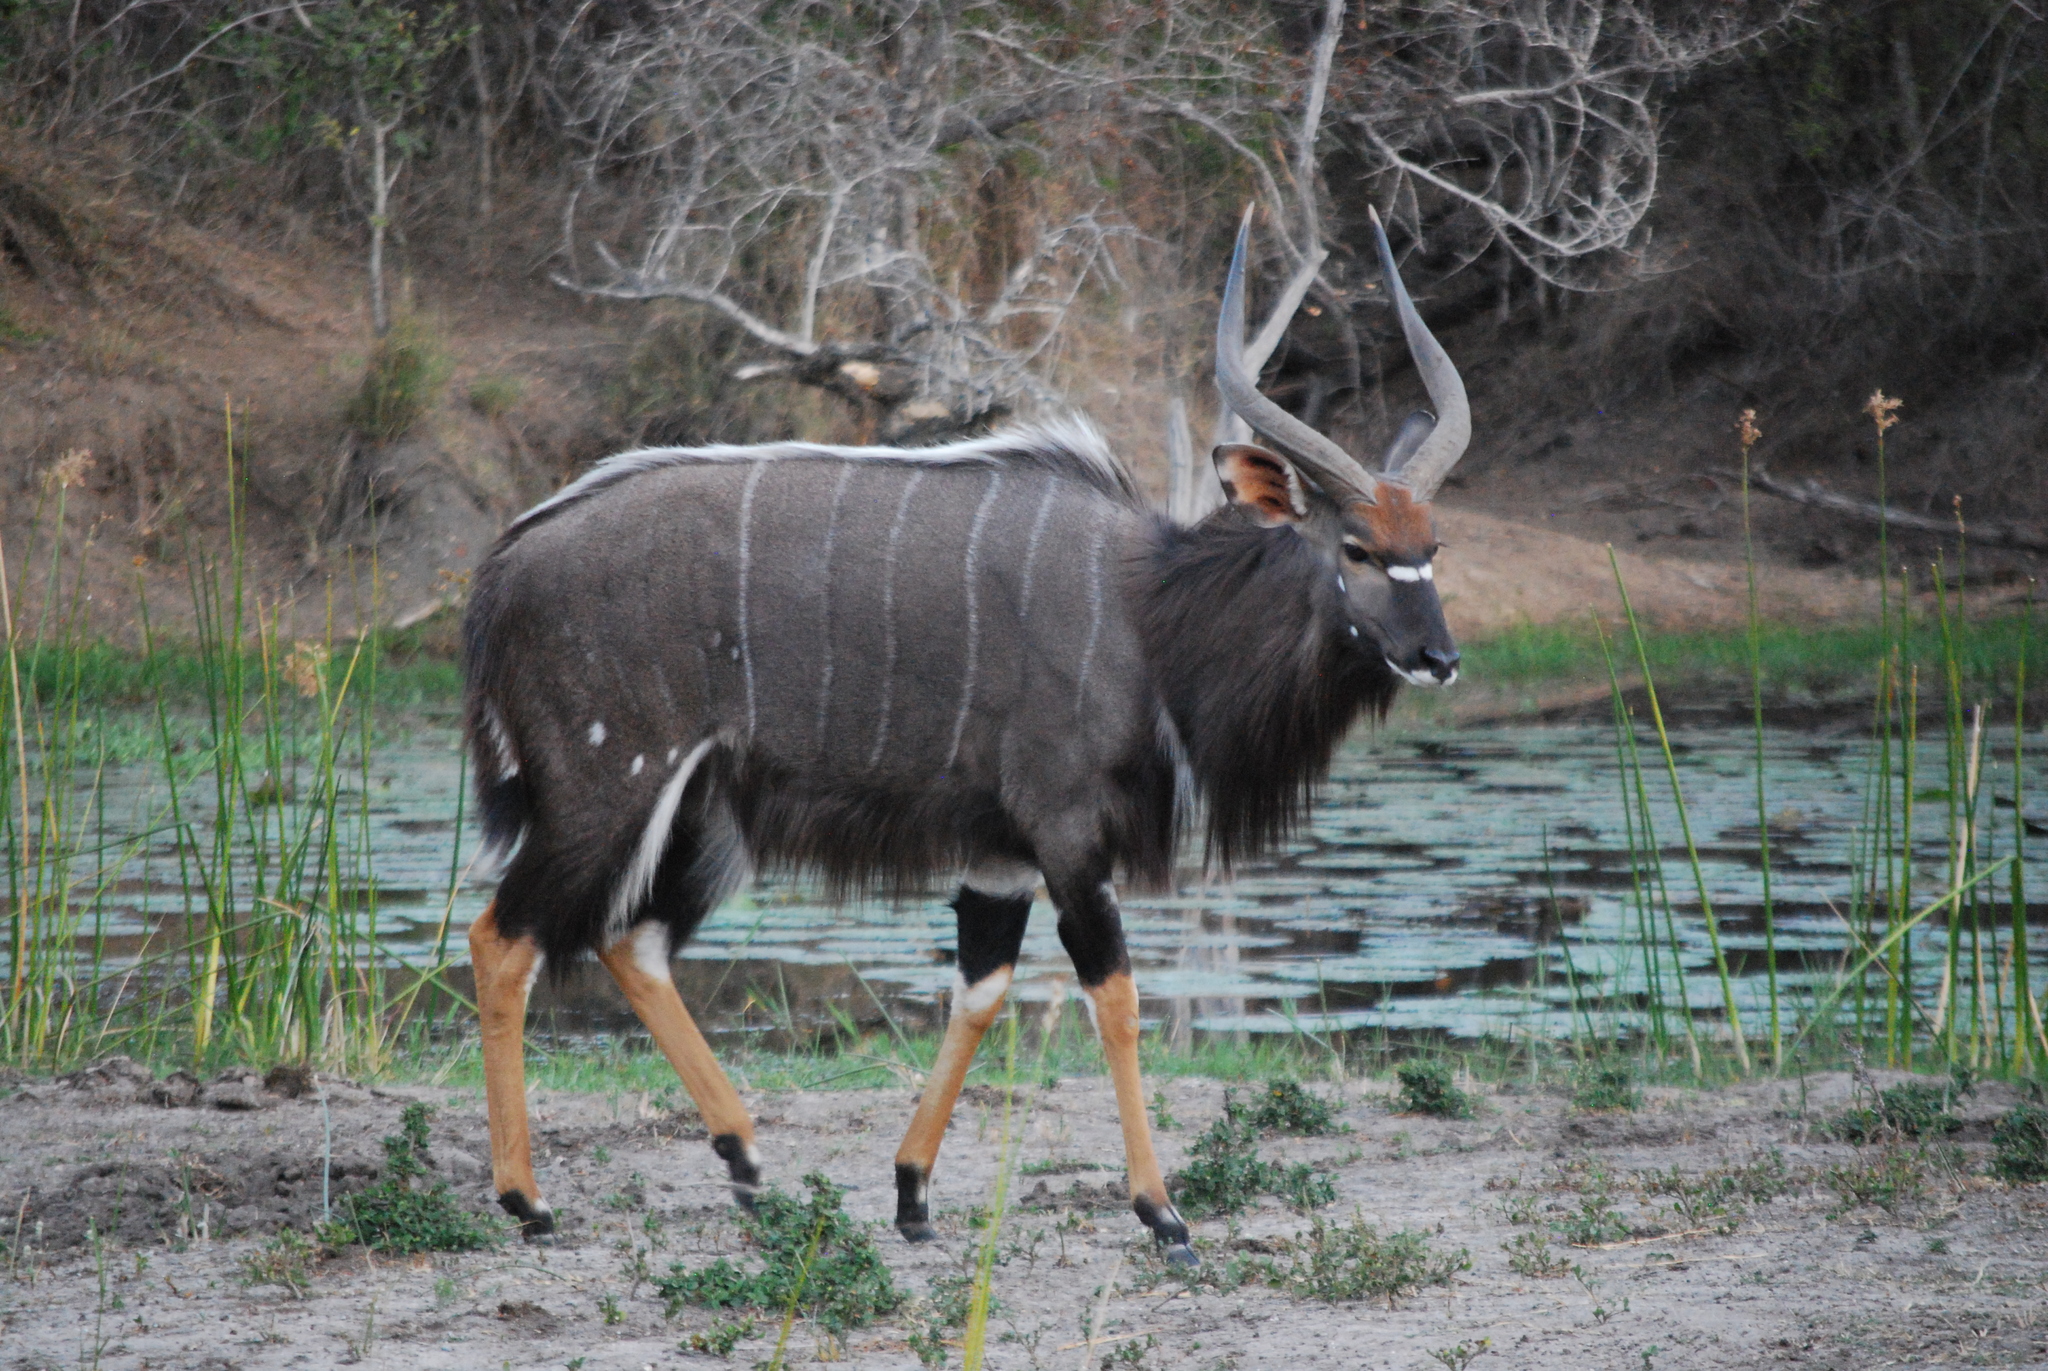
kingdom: Animalia
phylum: Chordata
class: Mammalia
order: Artiodactyla
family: Bovidae
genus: Tragelaphus
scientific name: Tragelaphus angasii
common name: Nyala
